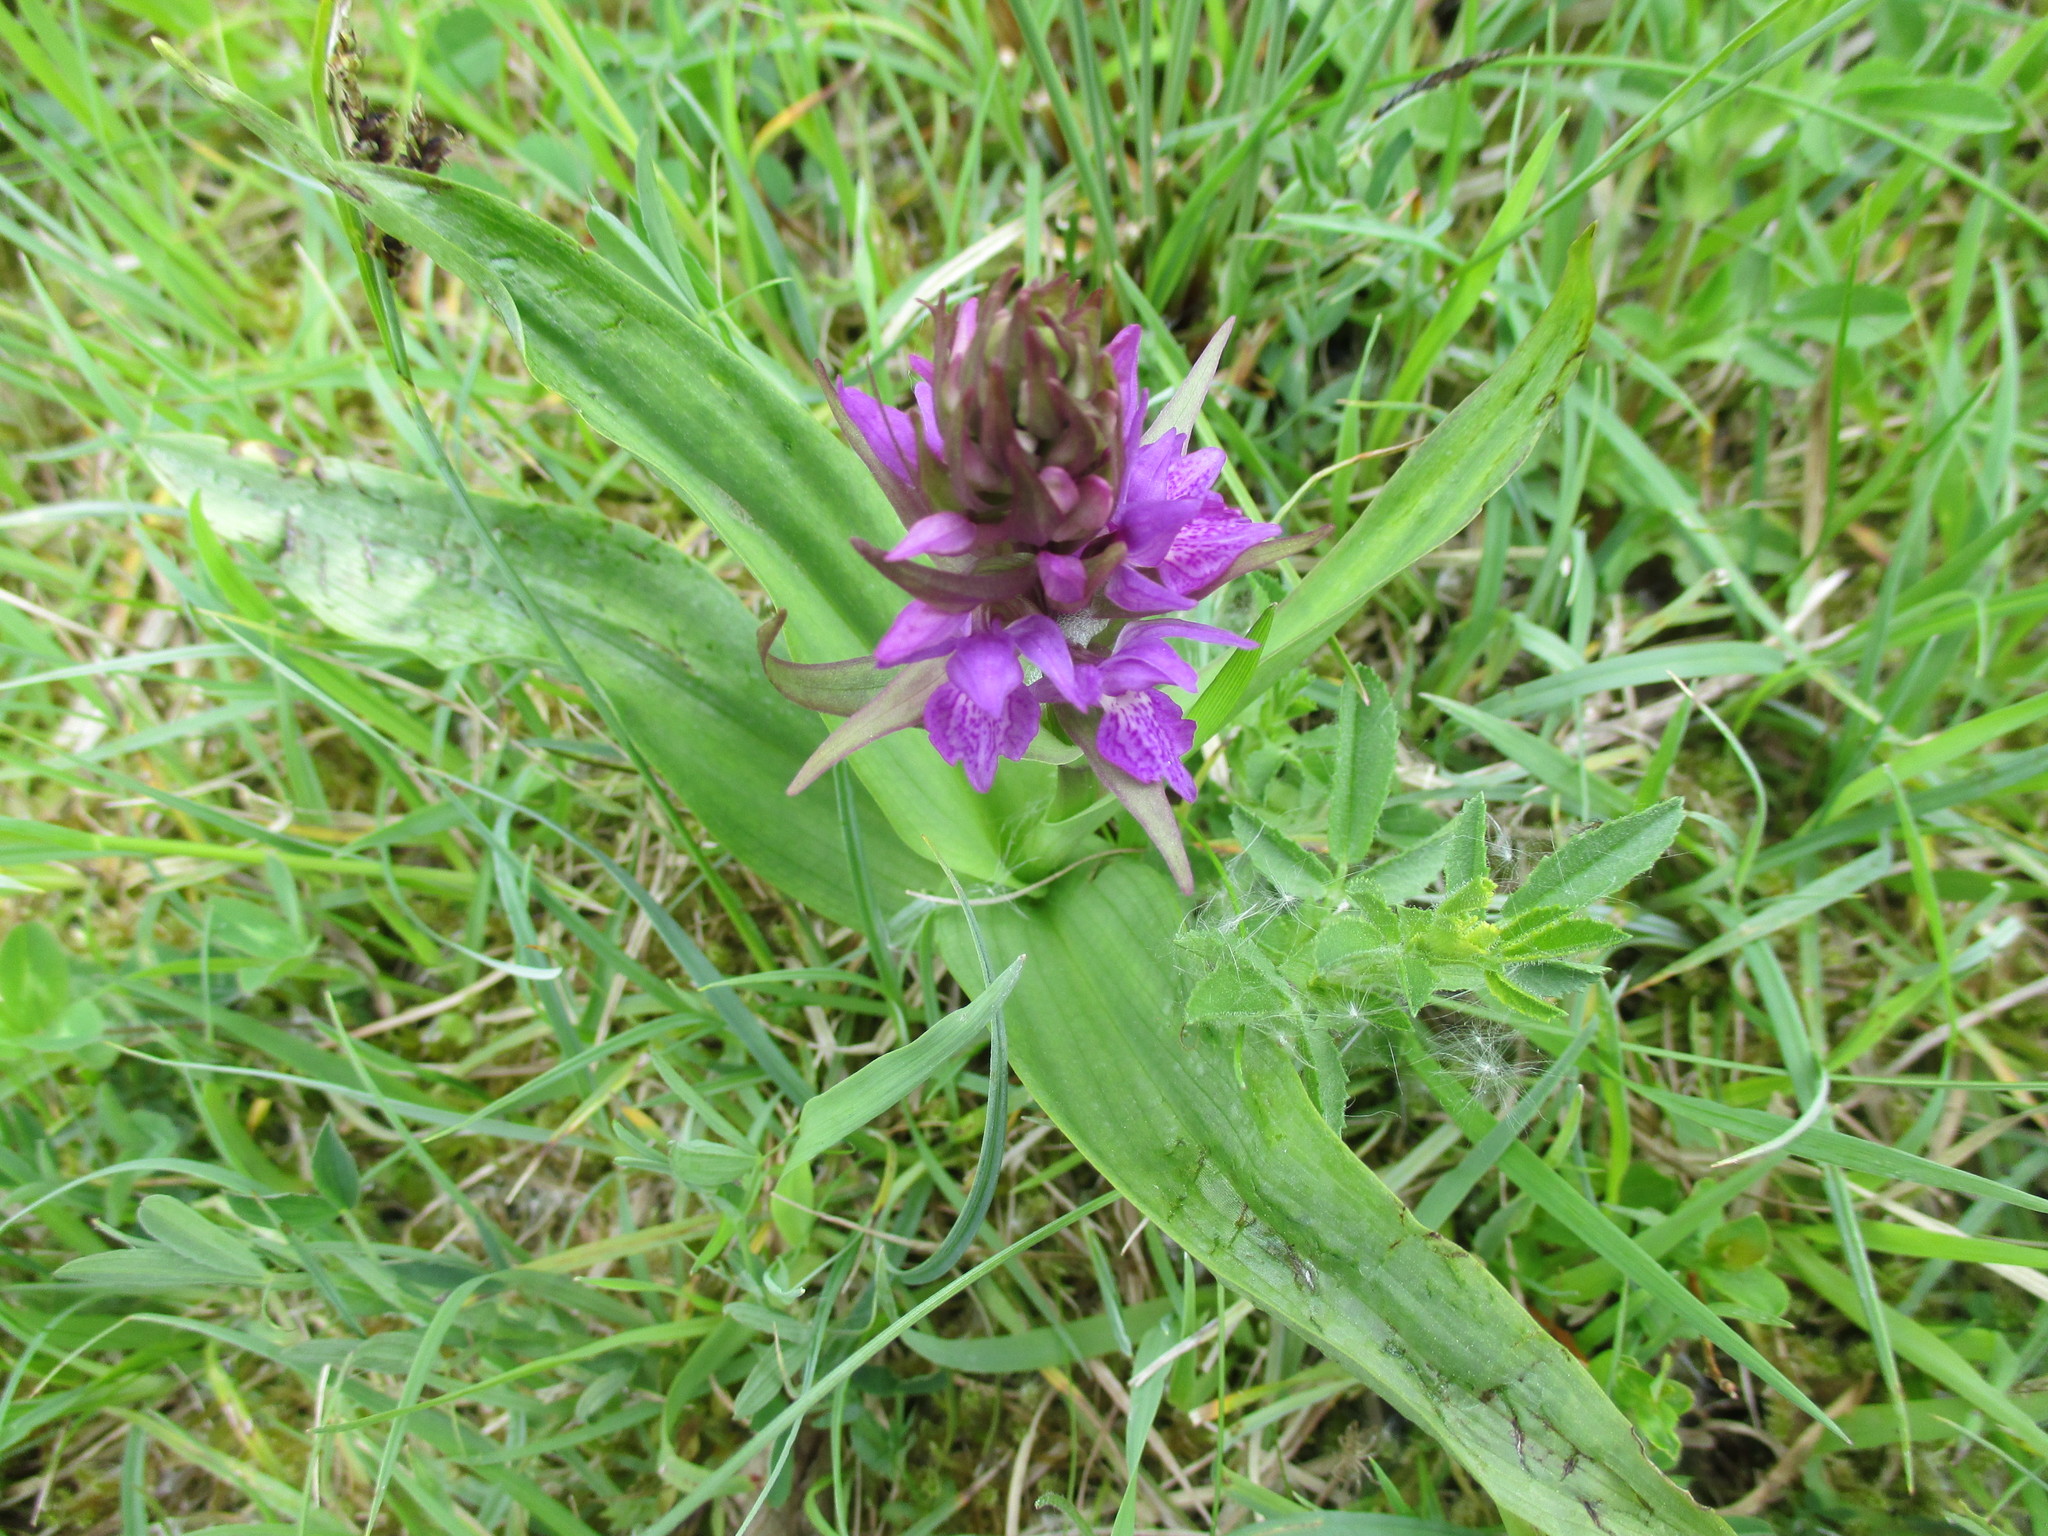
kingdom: Plantae
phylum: Tracheophyta
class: Liliopsida
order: Asparagales
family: Orchidaceae
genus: Dactylorhiza
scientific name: Dactylorhiza majalis
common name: Marsh orchid
